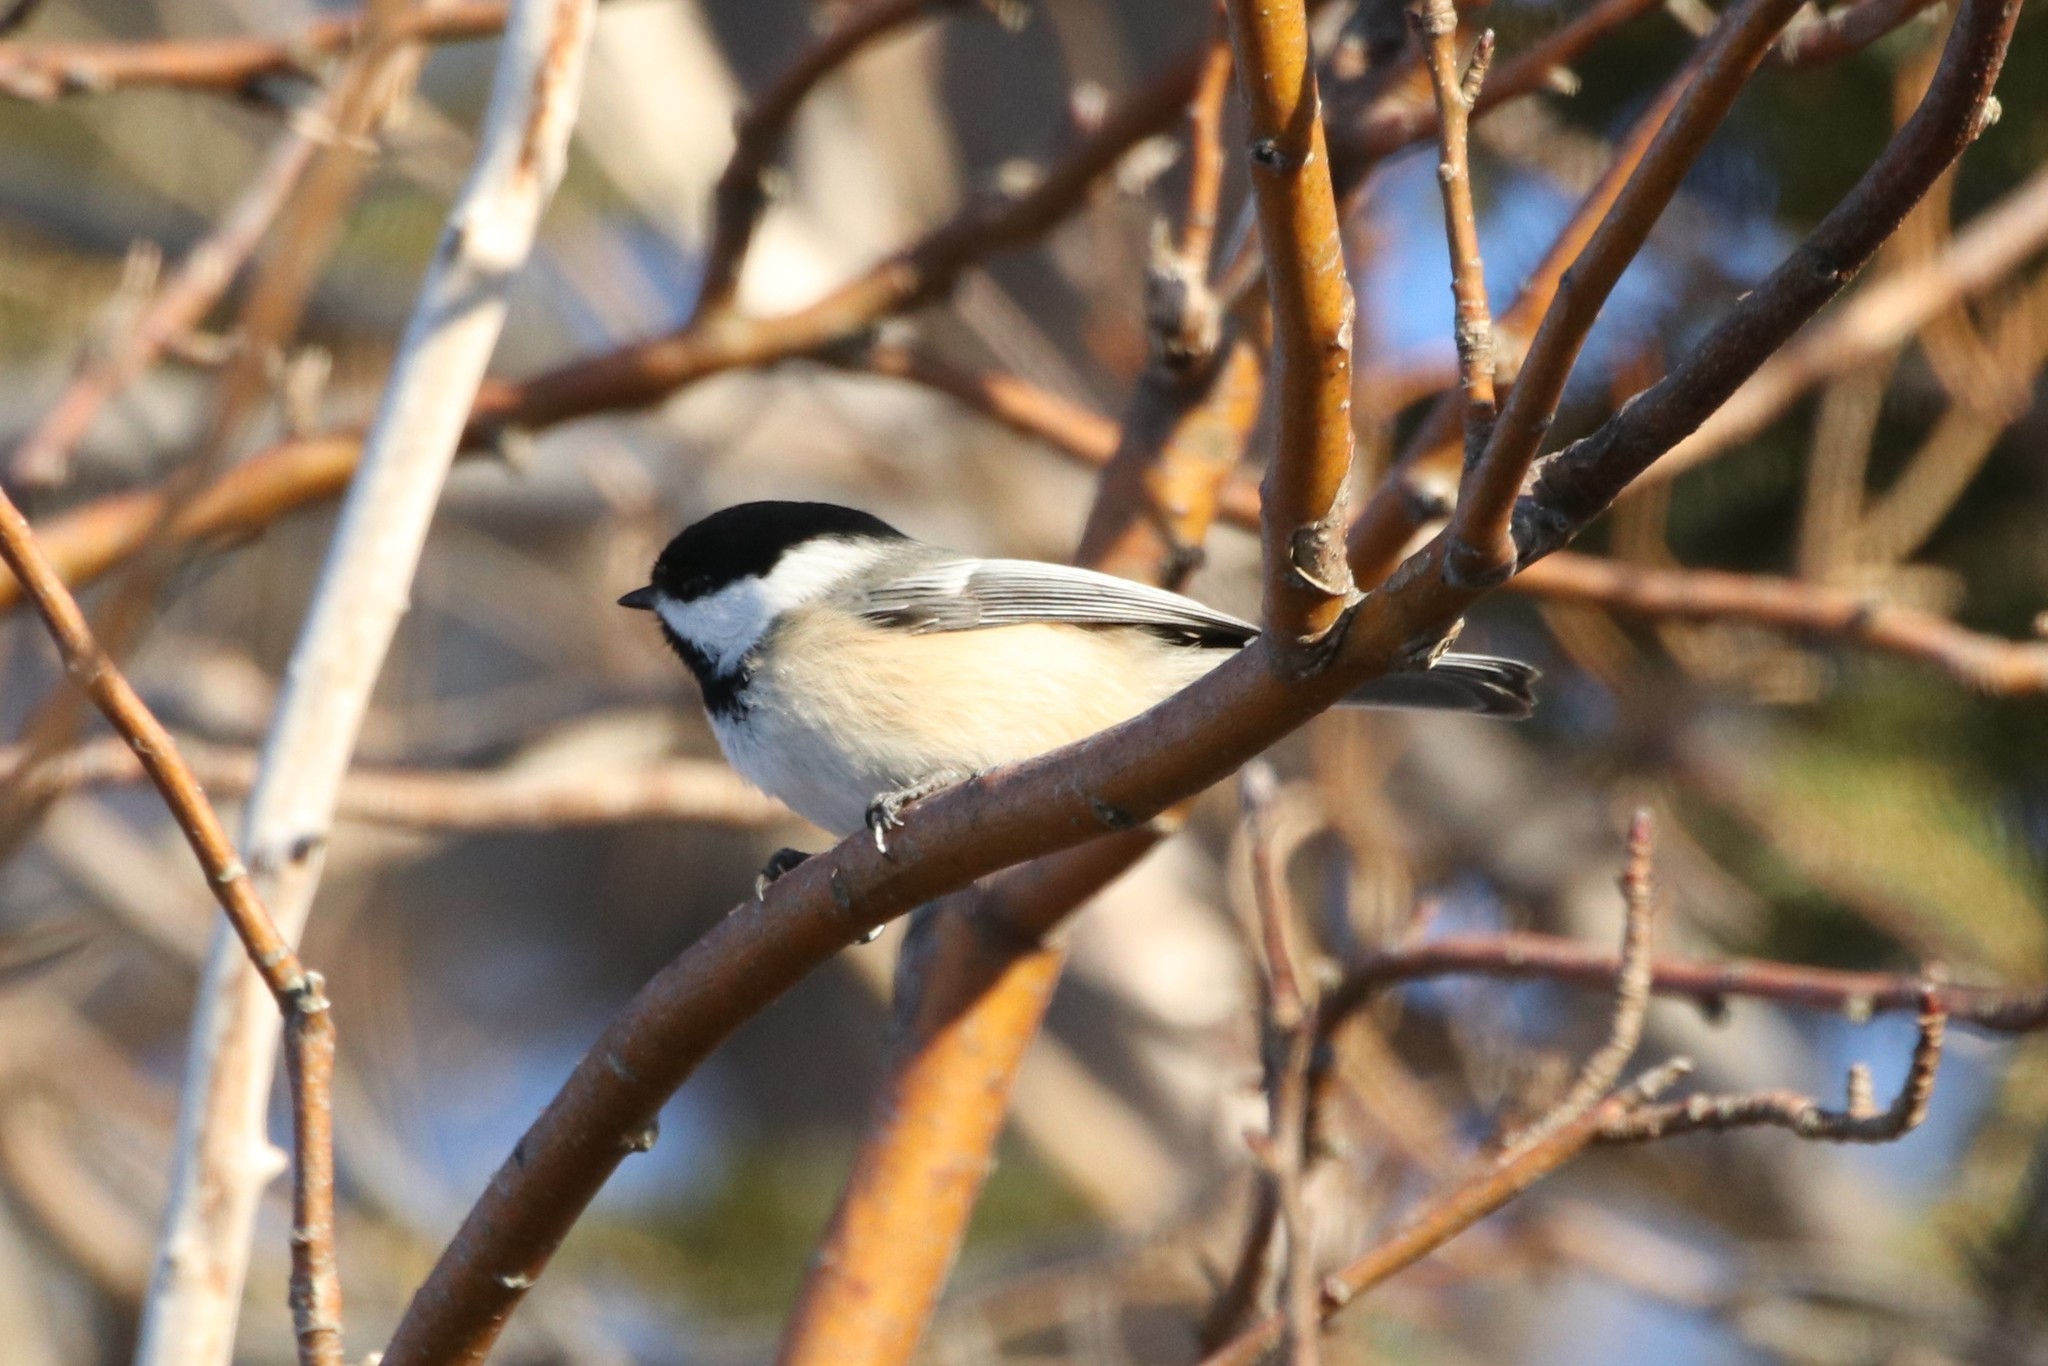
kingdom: Animalia
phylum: Chordata
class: Aves
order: Passeriformes
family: Paridae
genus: Poecile
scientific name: Poecile atricapillus
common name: Black-capped chickadee
